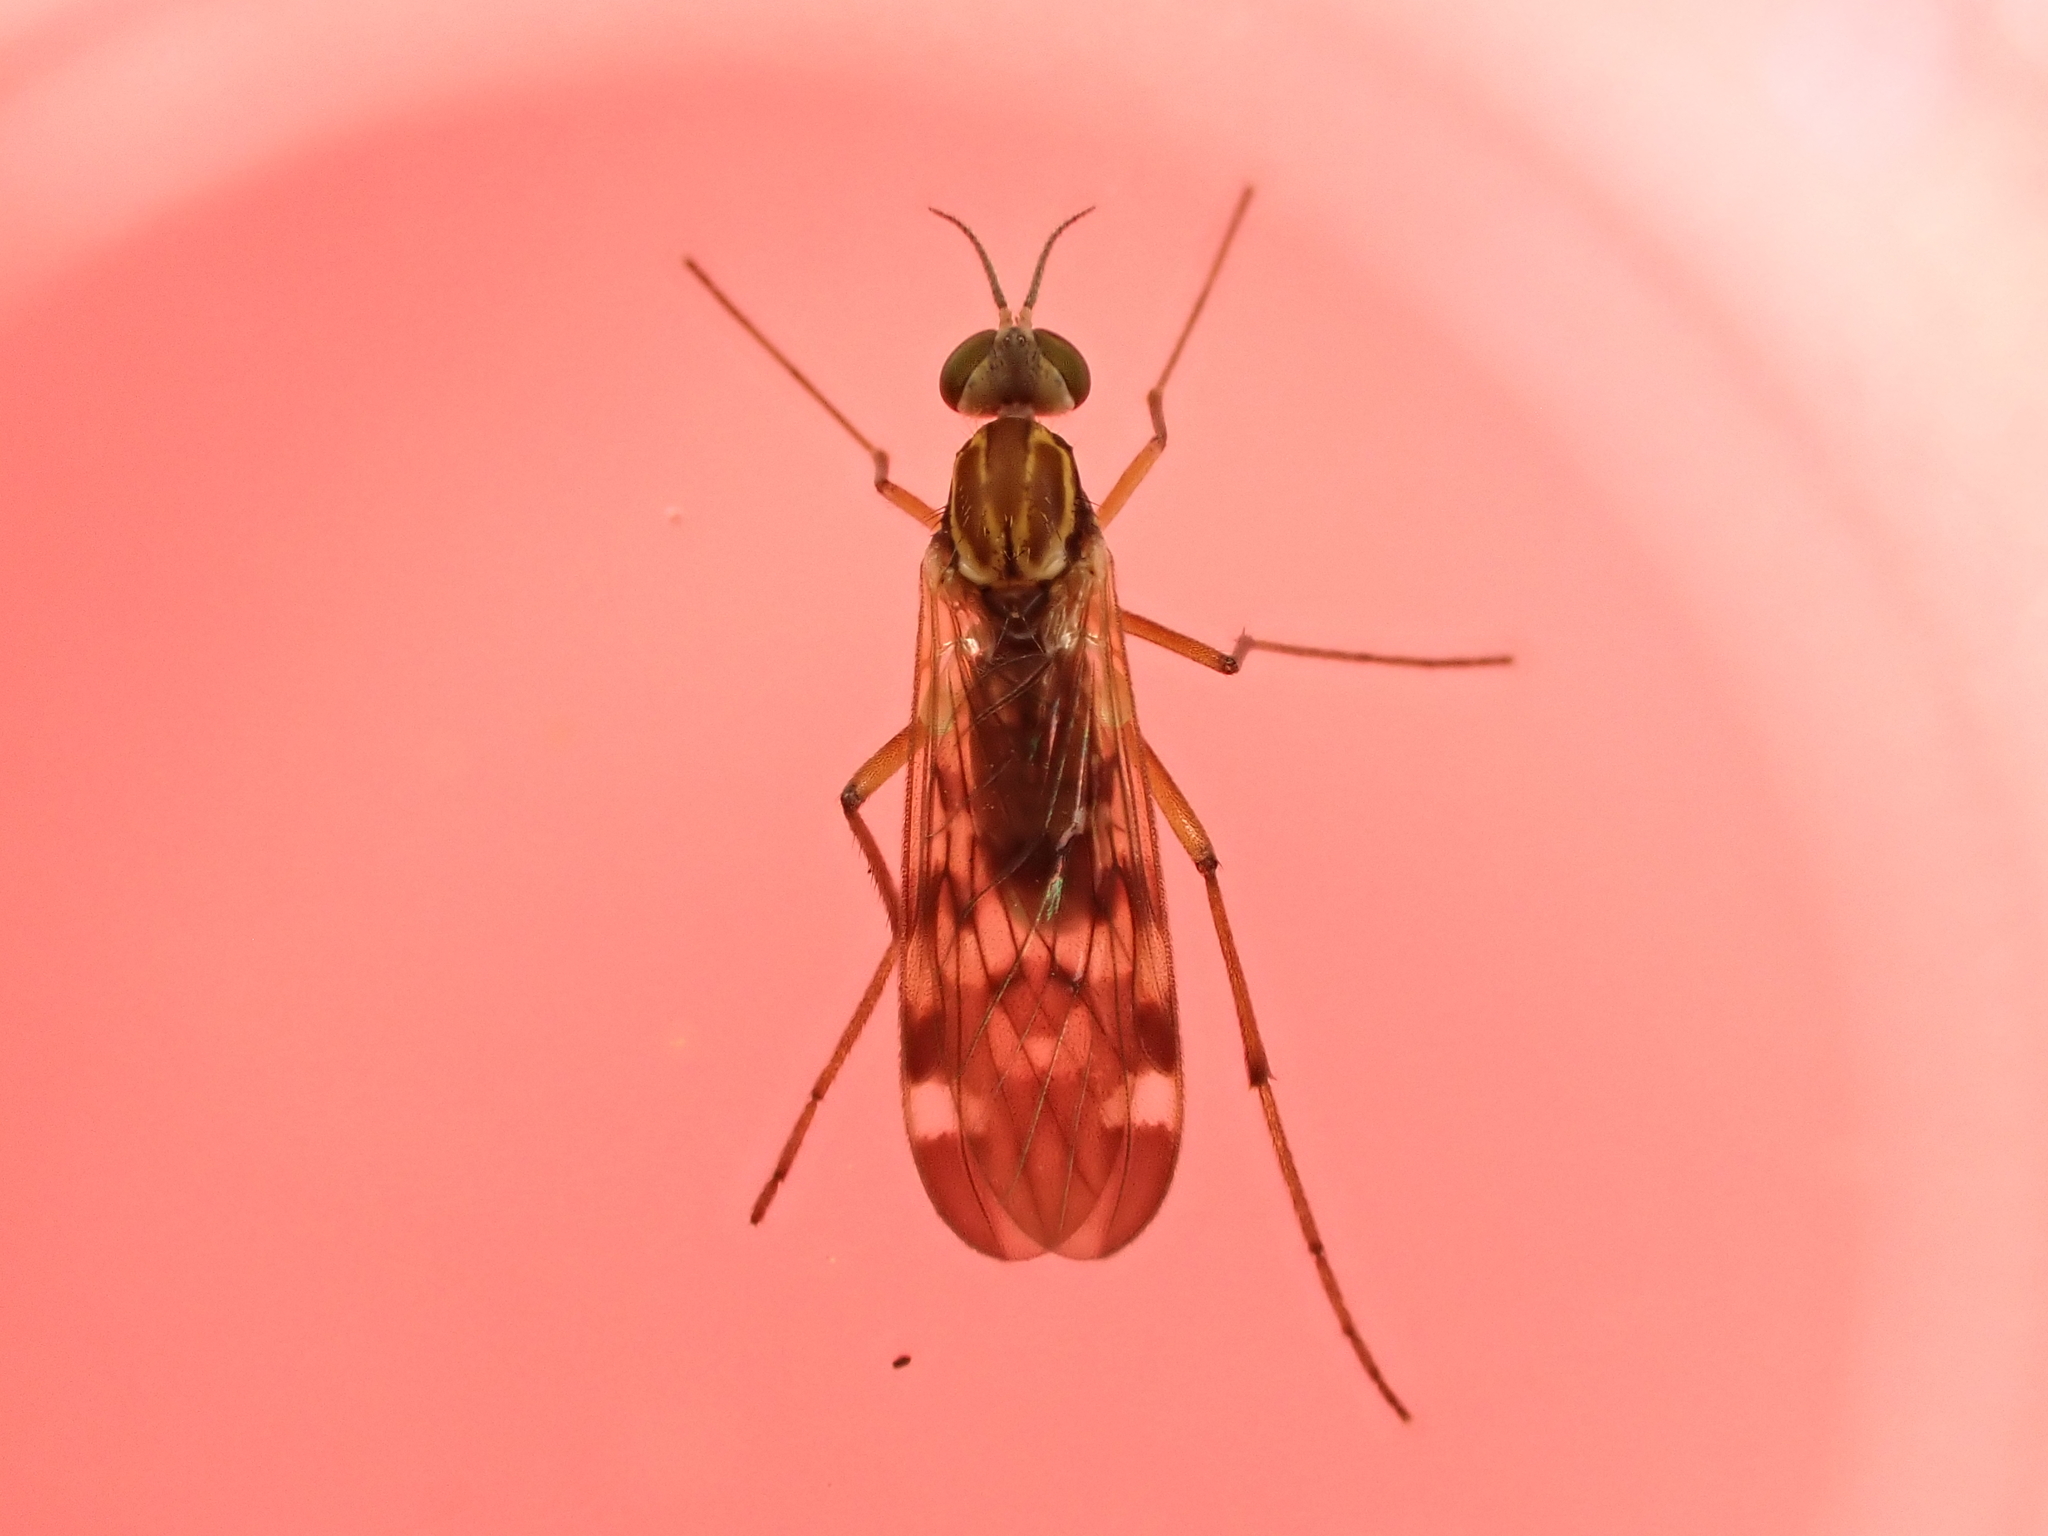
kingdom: Animalia
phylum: Arthropoda
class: Insecta
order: Diptera
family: Anisopodidae
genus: Sylvicola
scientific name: Sylvicola notatus
